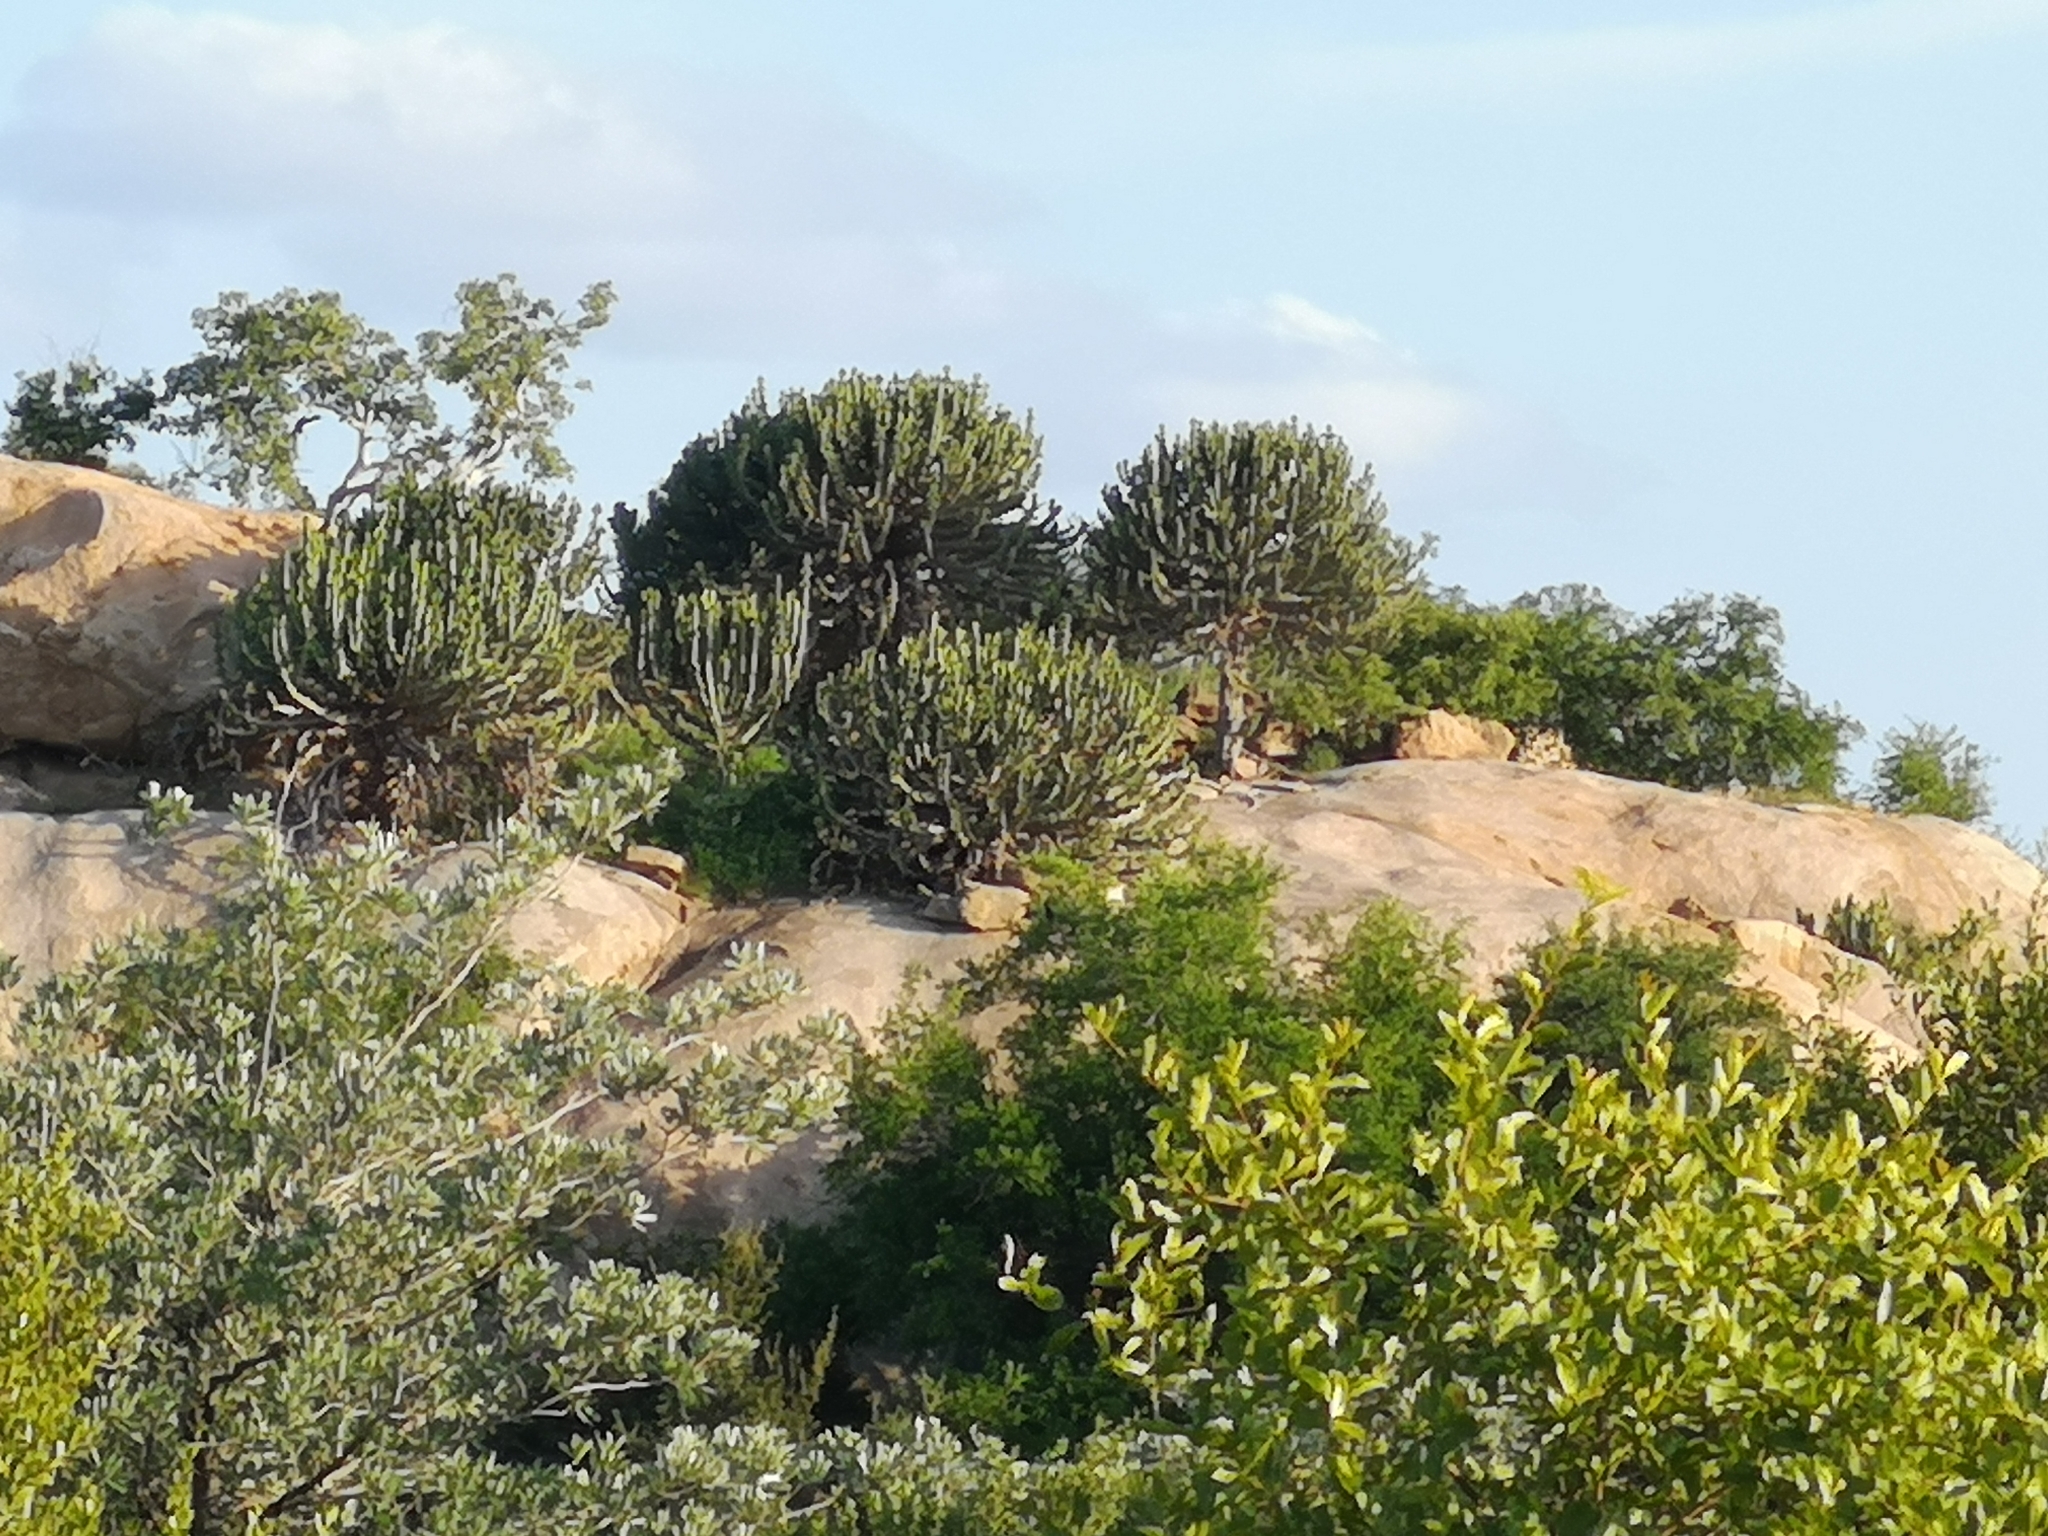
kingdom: Plantae
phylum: Tracheophyta
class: Magnoliopsida
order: Malpighiales
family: Euphorbiaceae
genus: Euphorbia
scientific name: Euphorbia cooperi
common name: Candelabra tree
